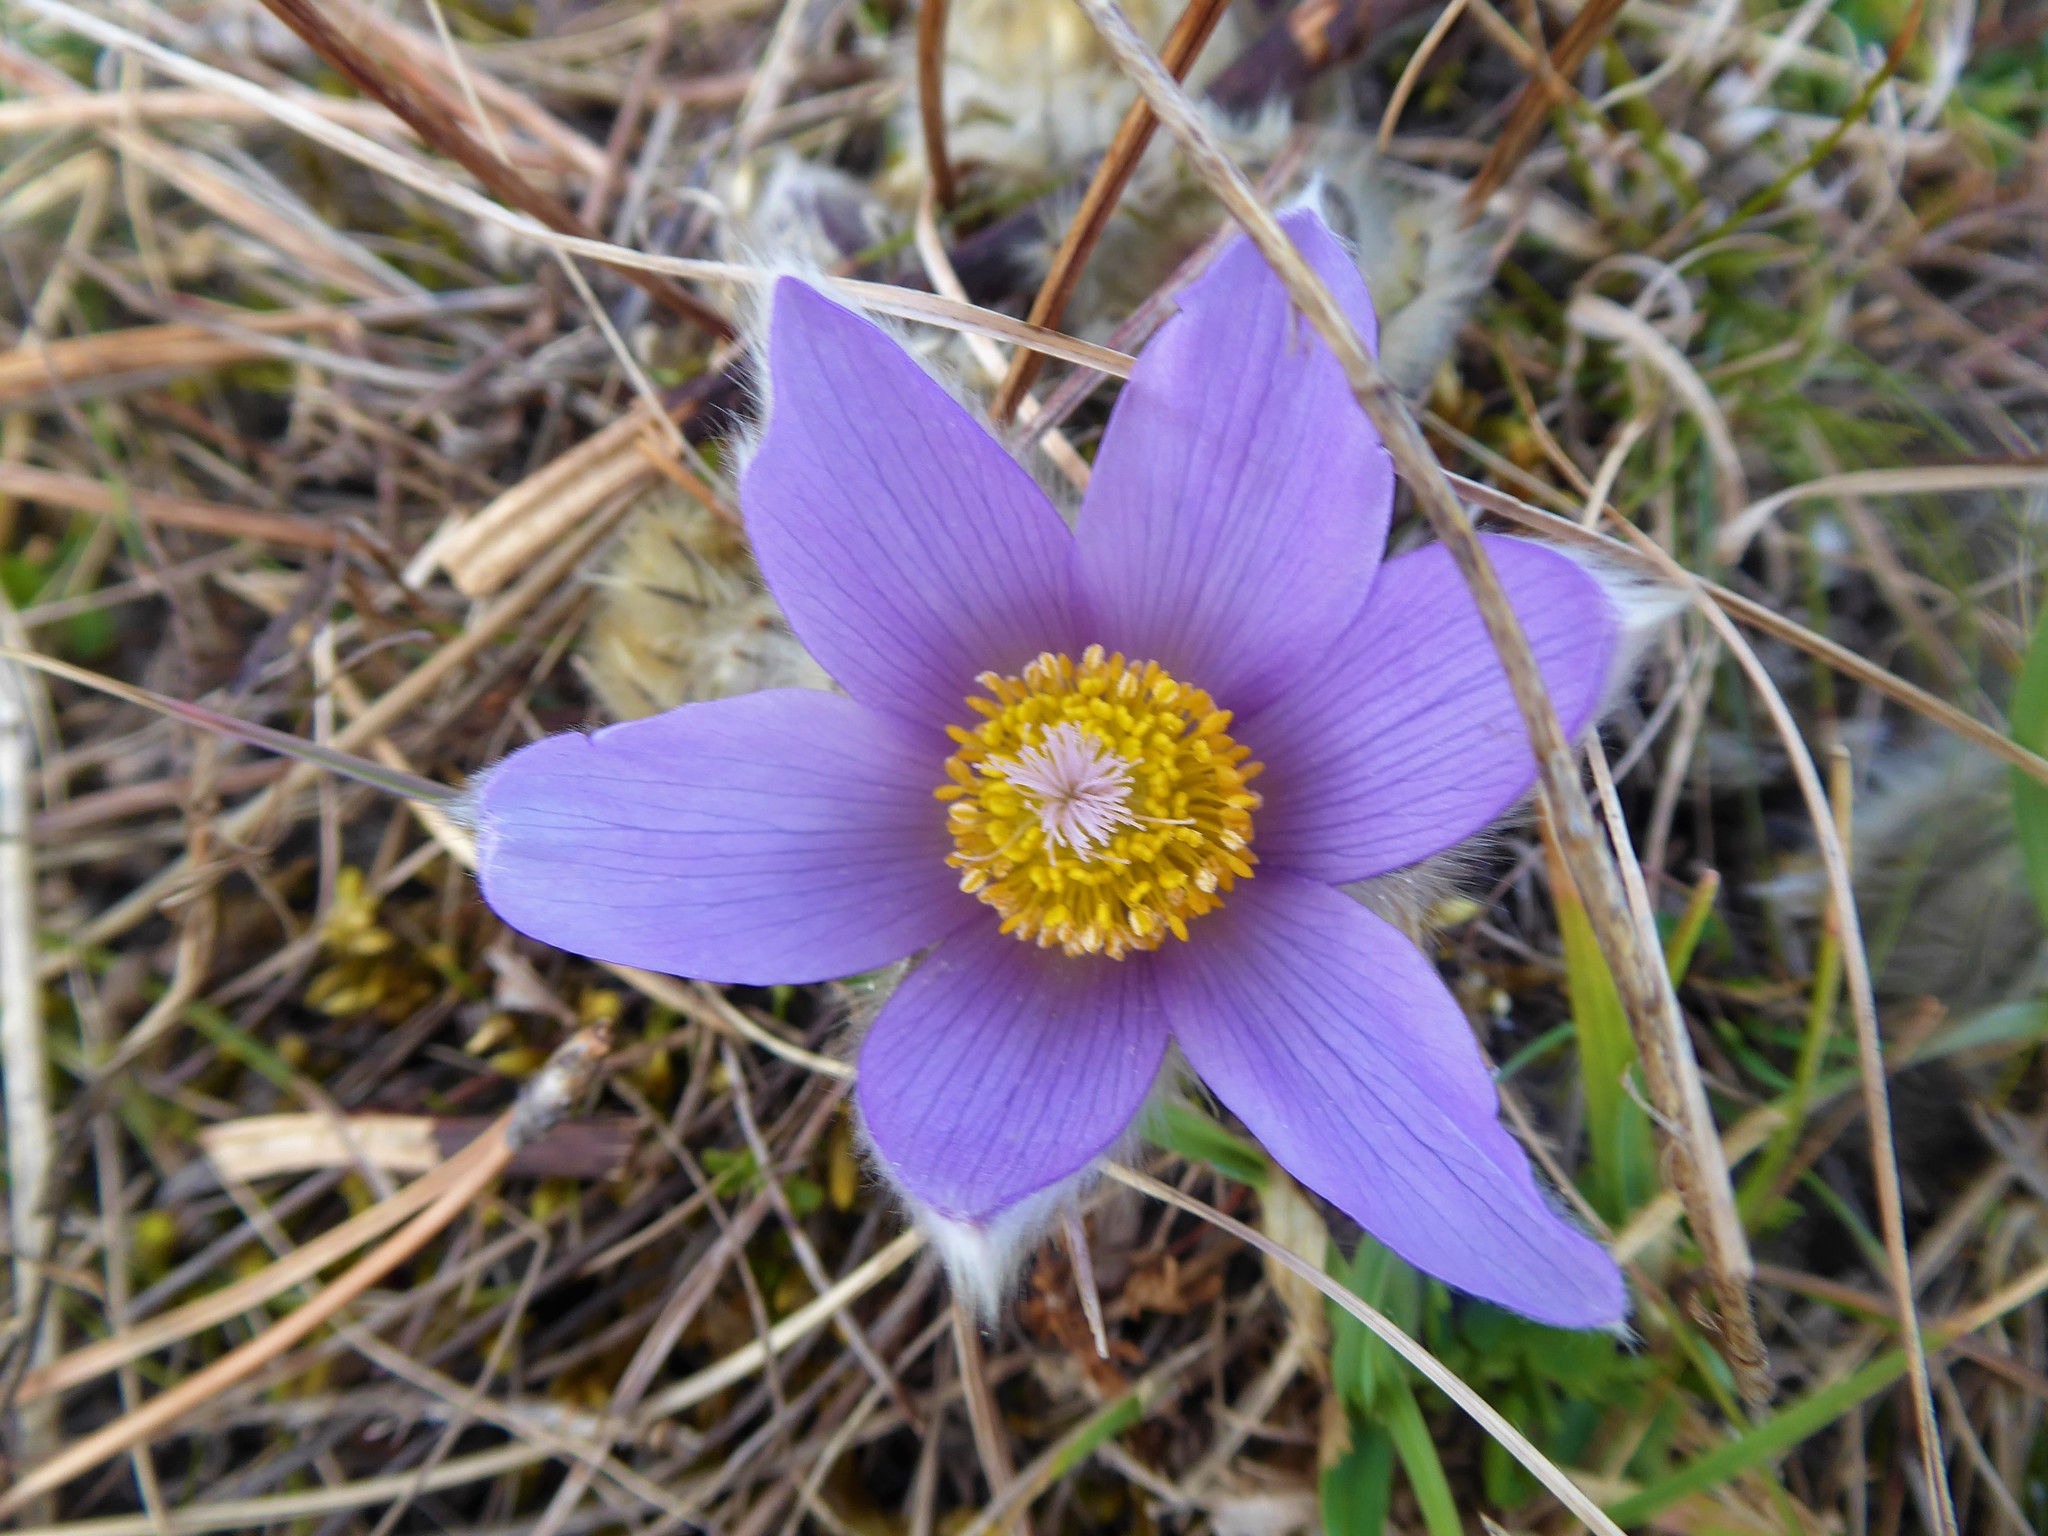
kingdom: Plantae
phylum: Tracheophyta
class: Magnoliopsida
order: Ranunculales
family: Ranunculaceae
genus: Pulsatilla
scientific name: Pulsatilla grandis
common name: Greater pasque flower
